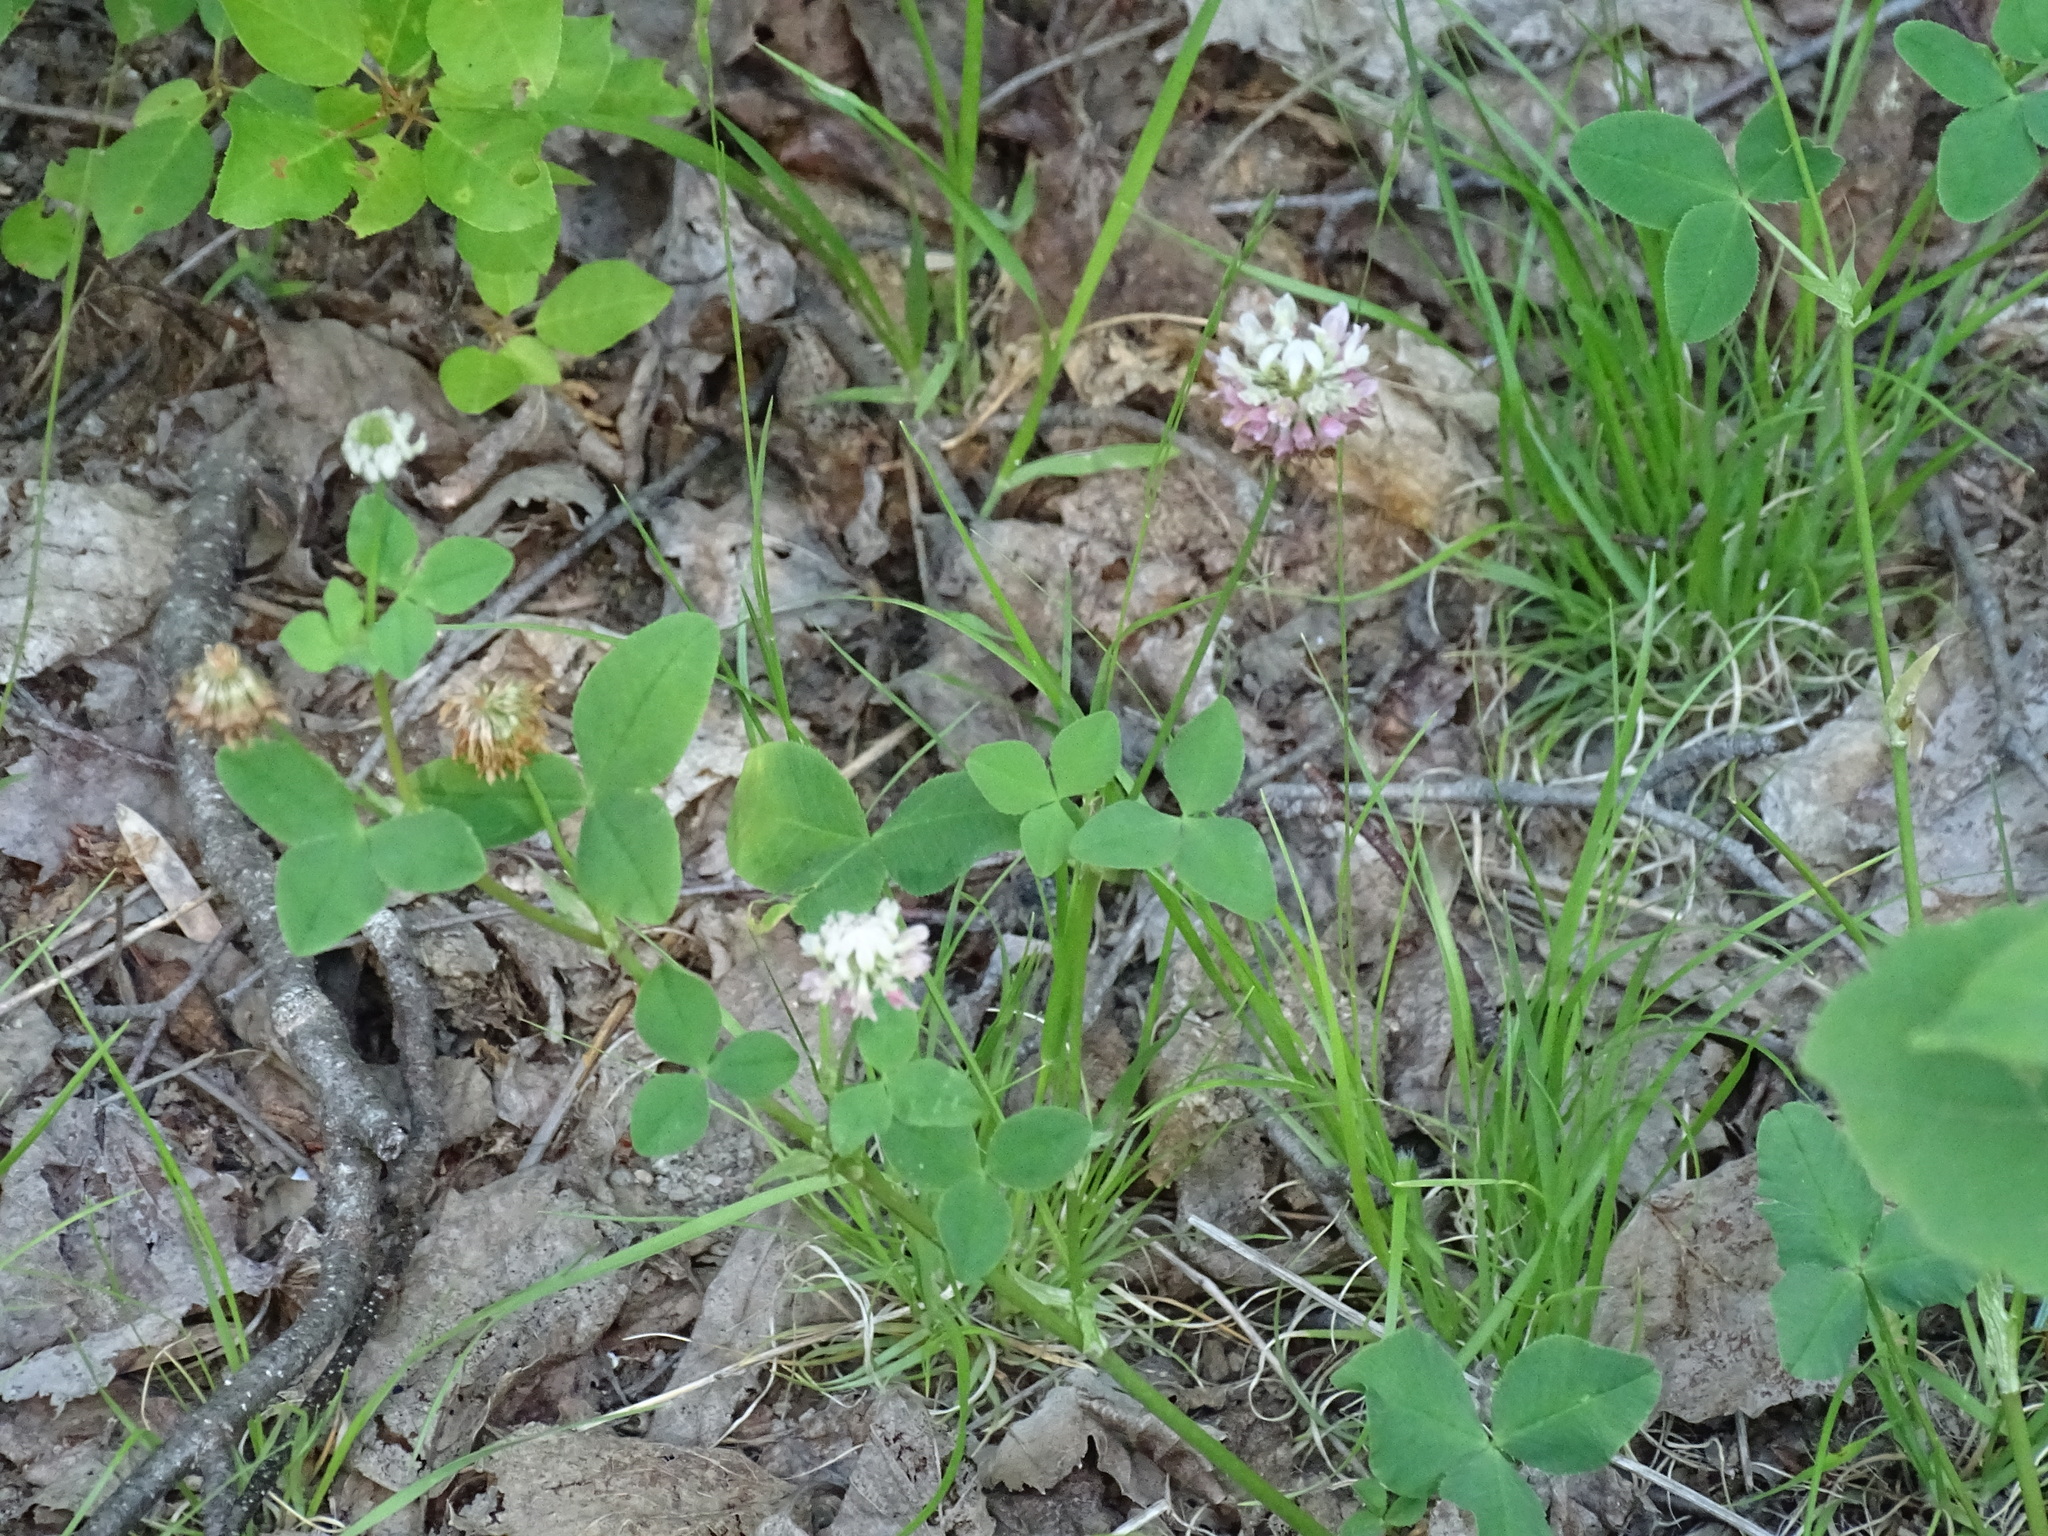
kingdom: Plantae
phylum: Tracheophyta
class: Magnoliopsida
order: Fabales
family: Fabaceae
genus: Trifolium
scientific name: Trifolium repens
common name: White clover
